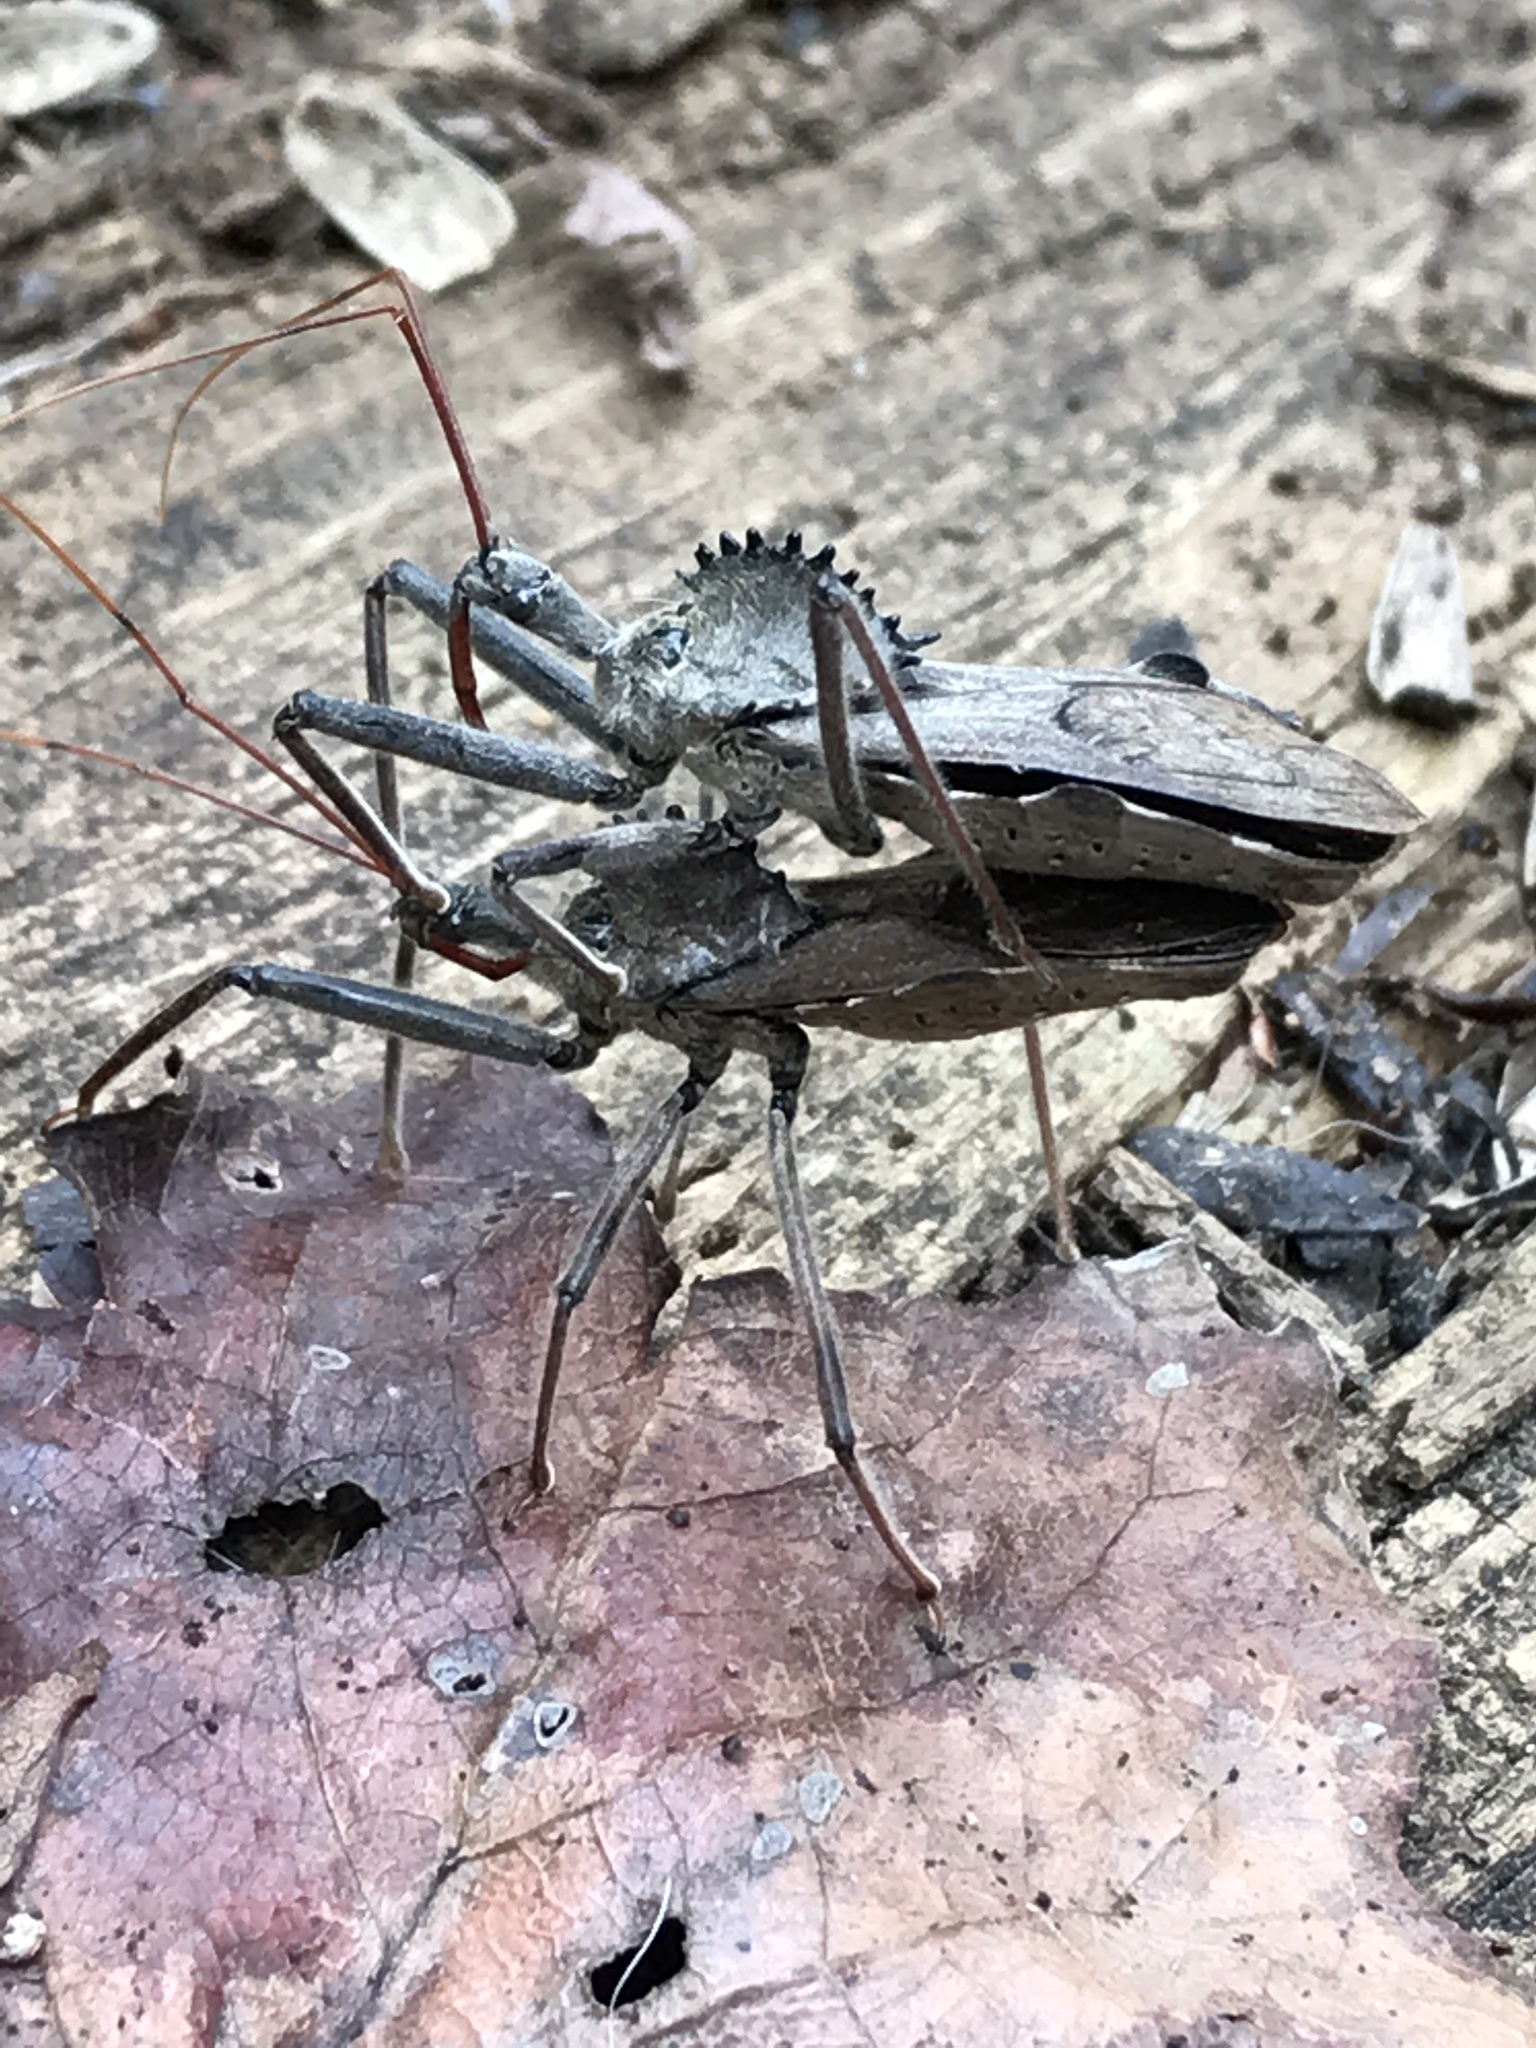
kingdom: Animalia
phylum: Arthropoda
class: Insecta
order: Hemiptera
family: Reduviidae
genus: Arilus
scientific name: Arilus cristatus
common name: North american wheel bug
